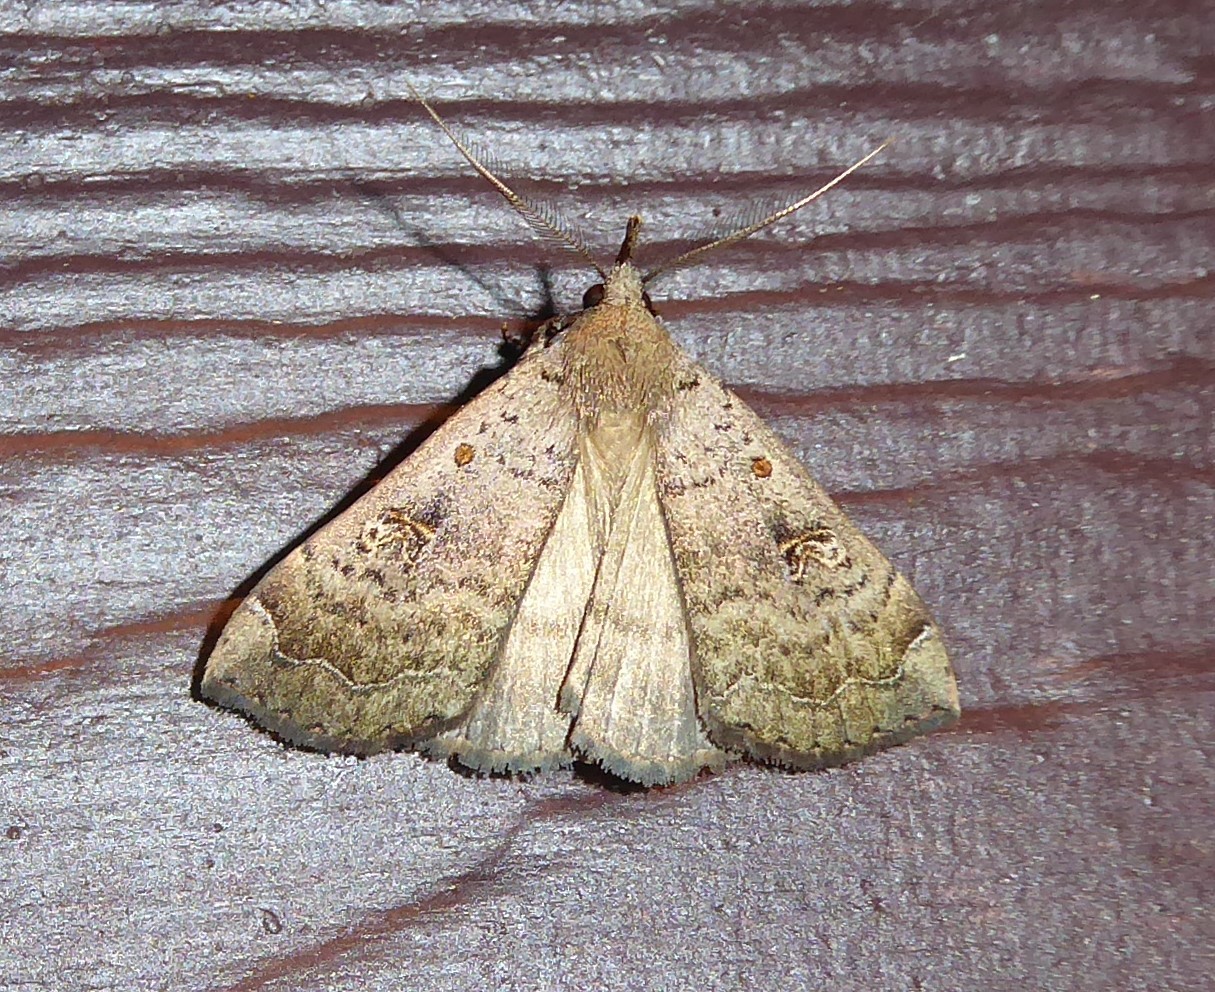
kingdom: Animalia
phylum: Arthropoda
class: Insecta
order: Lepidoptera
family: Erebidae
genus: Rhapsa
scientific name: Rhapsa scotosialis
